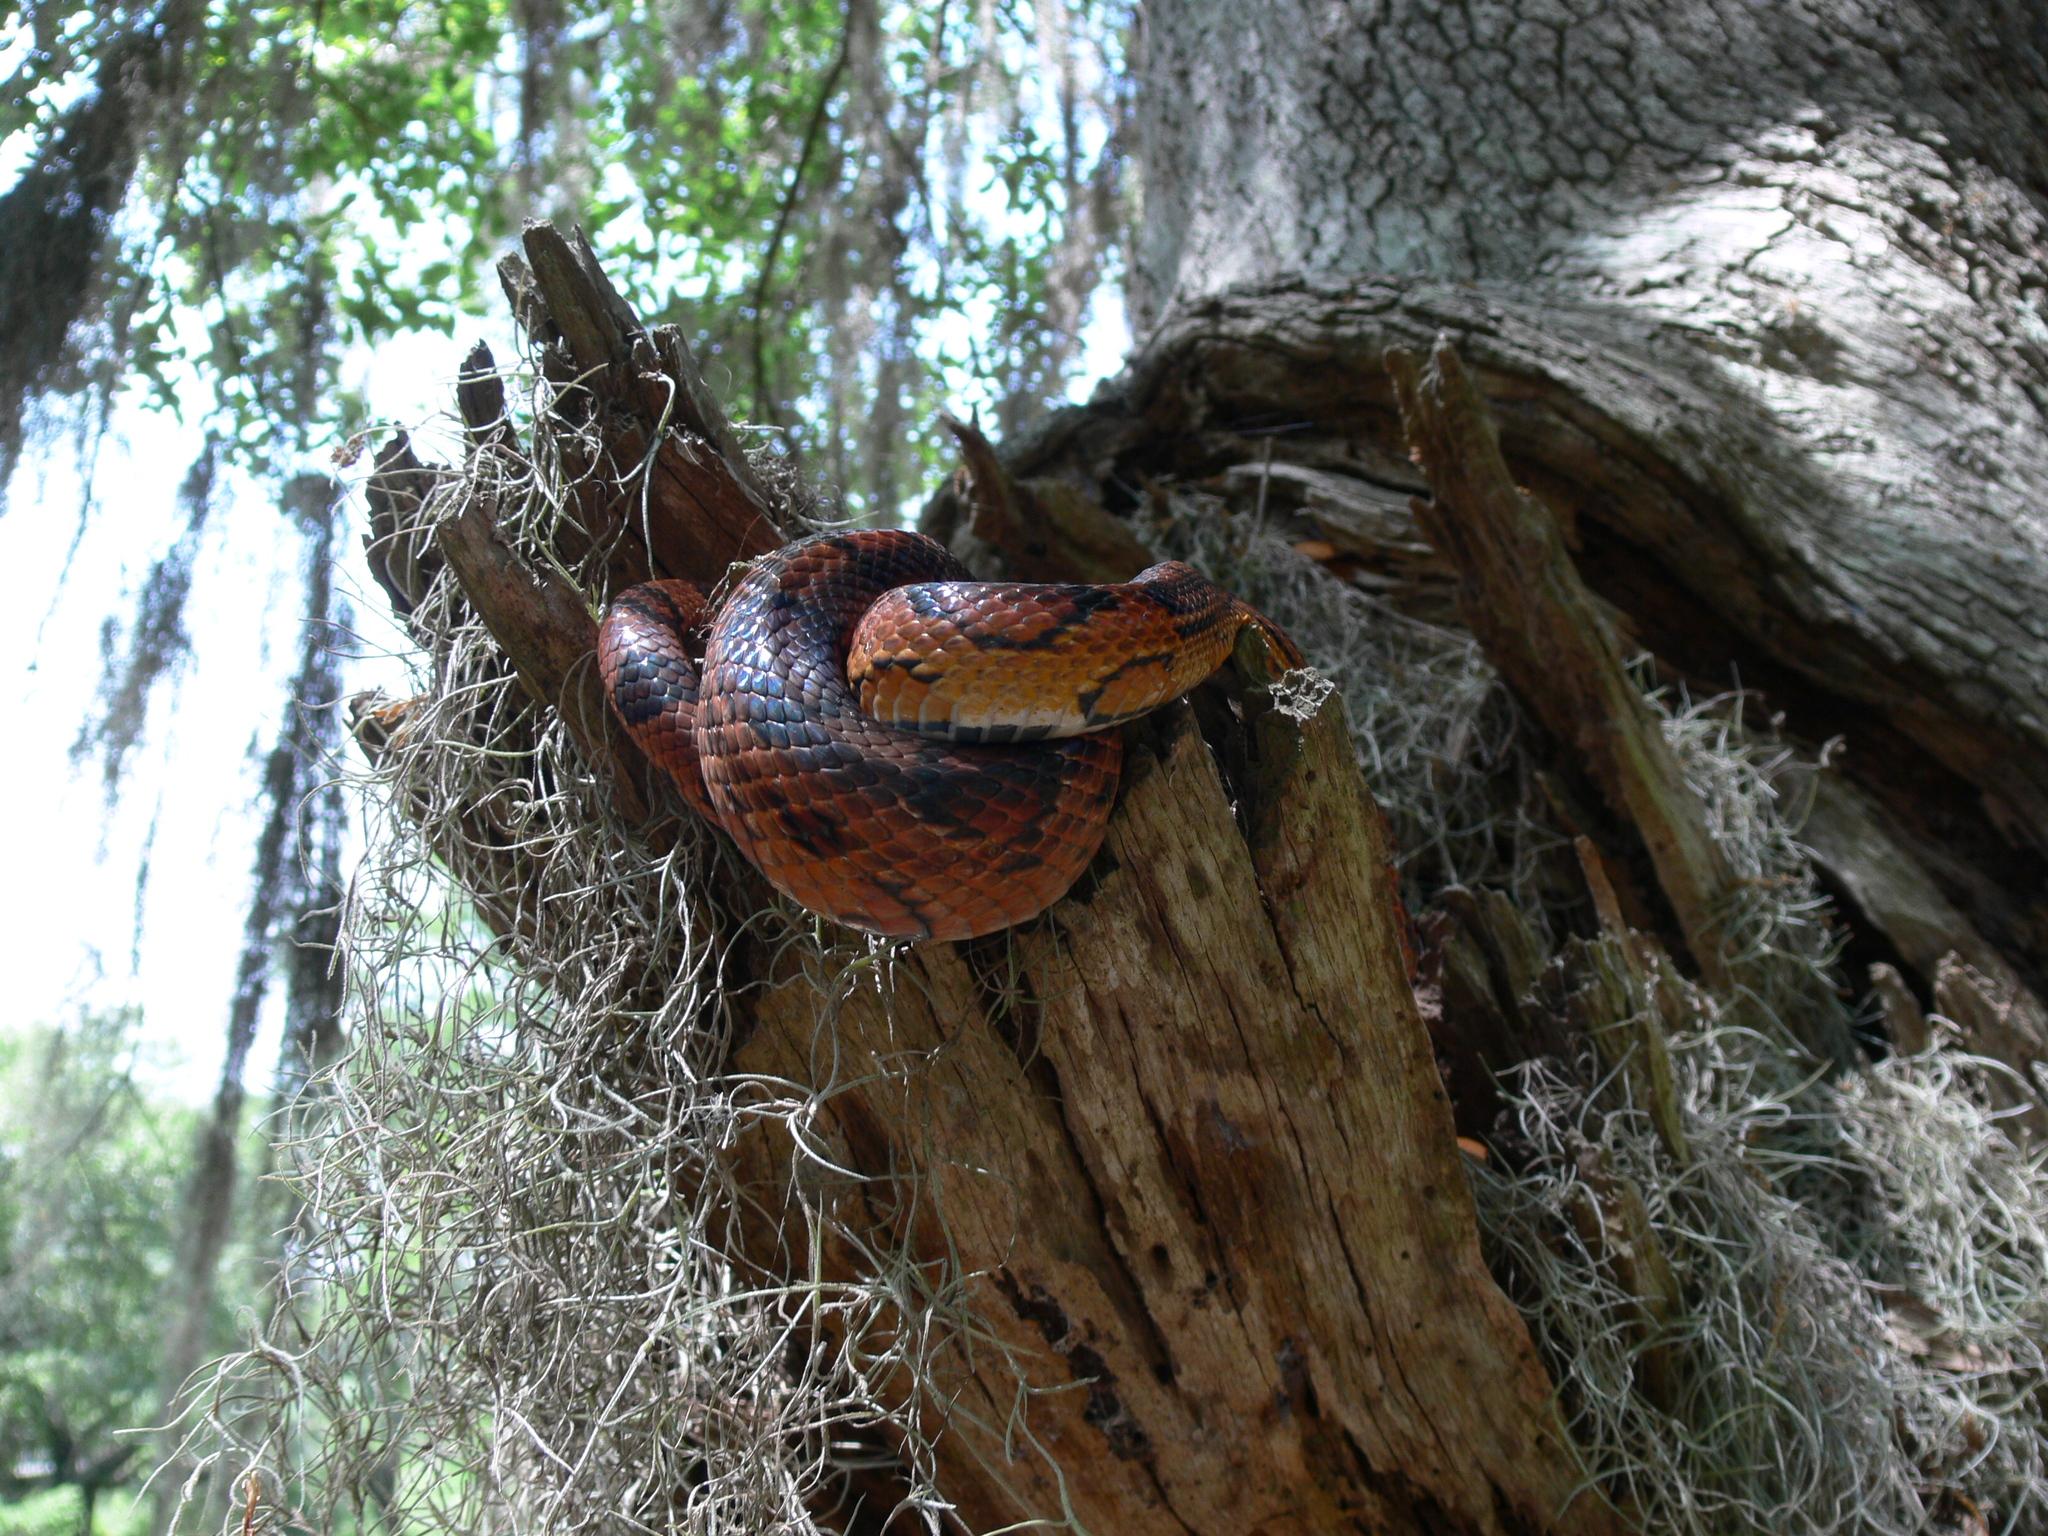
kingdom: Animalia
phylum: Chordata
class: Squamata
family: Colubridae
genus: Pantherophis
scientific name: Pantherophis guttatus
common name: Red cornsnake
